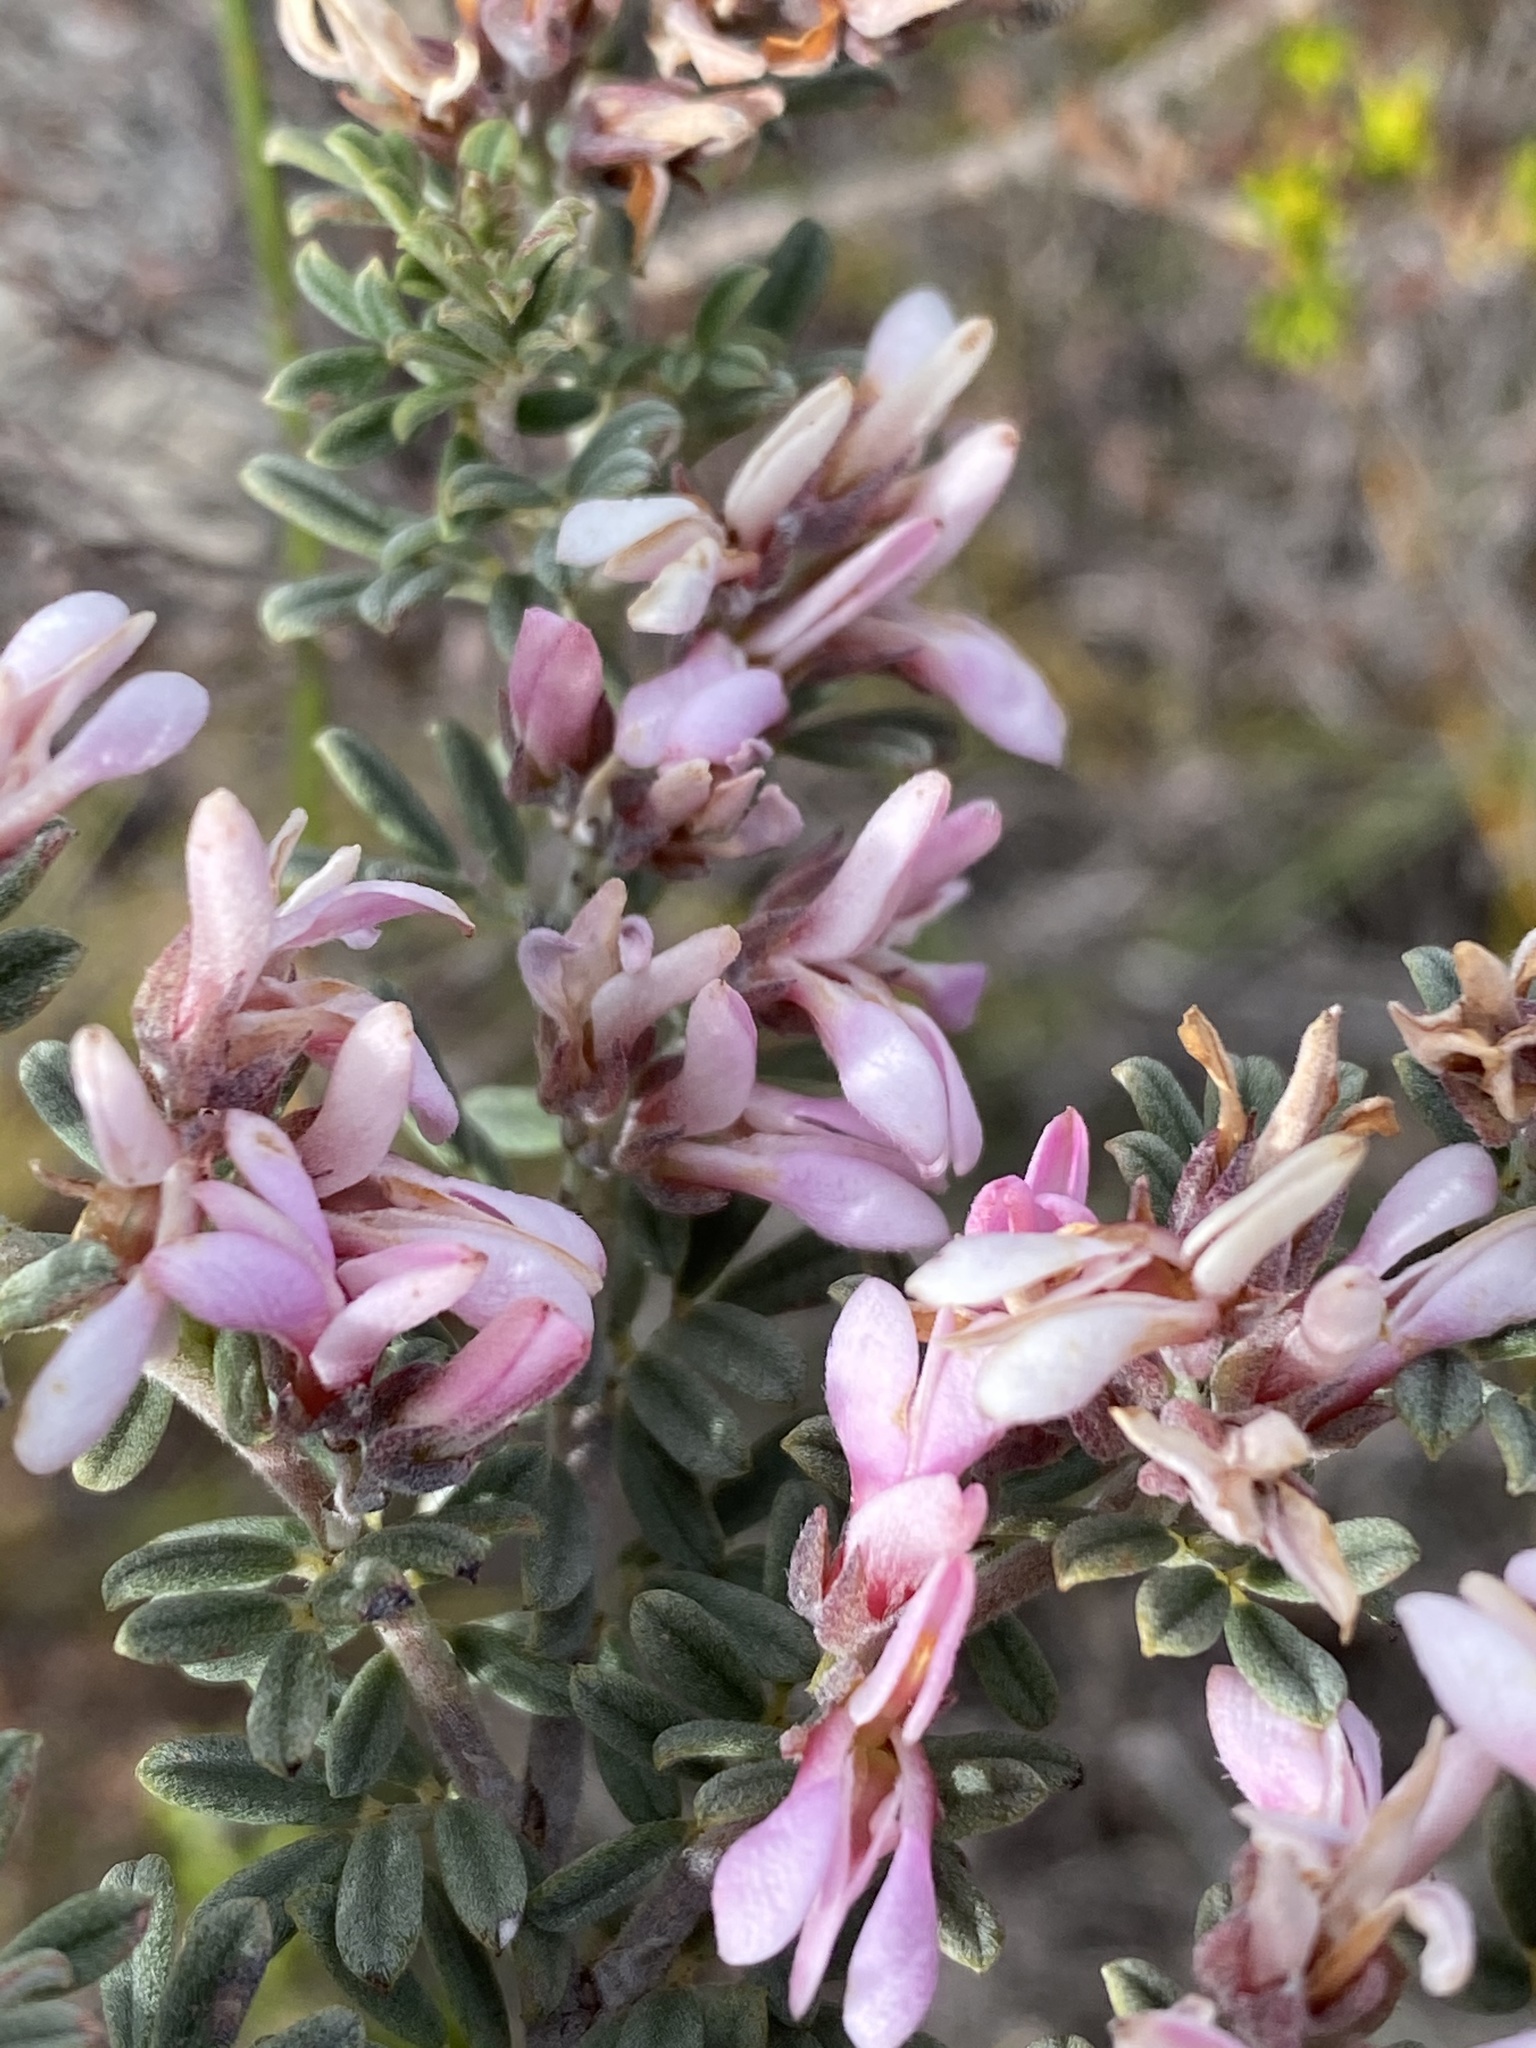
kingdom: Plantae
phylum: Tracheophyta
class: Magnoliopsida
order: Fabales
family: Fabaceae
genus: Indigofera
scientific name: Indigofera brachystachya
